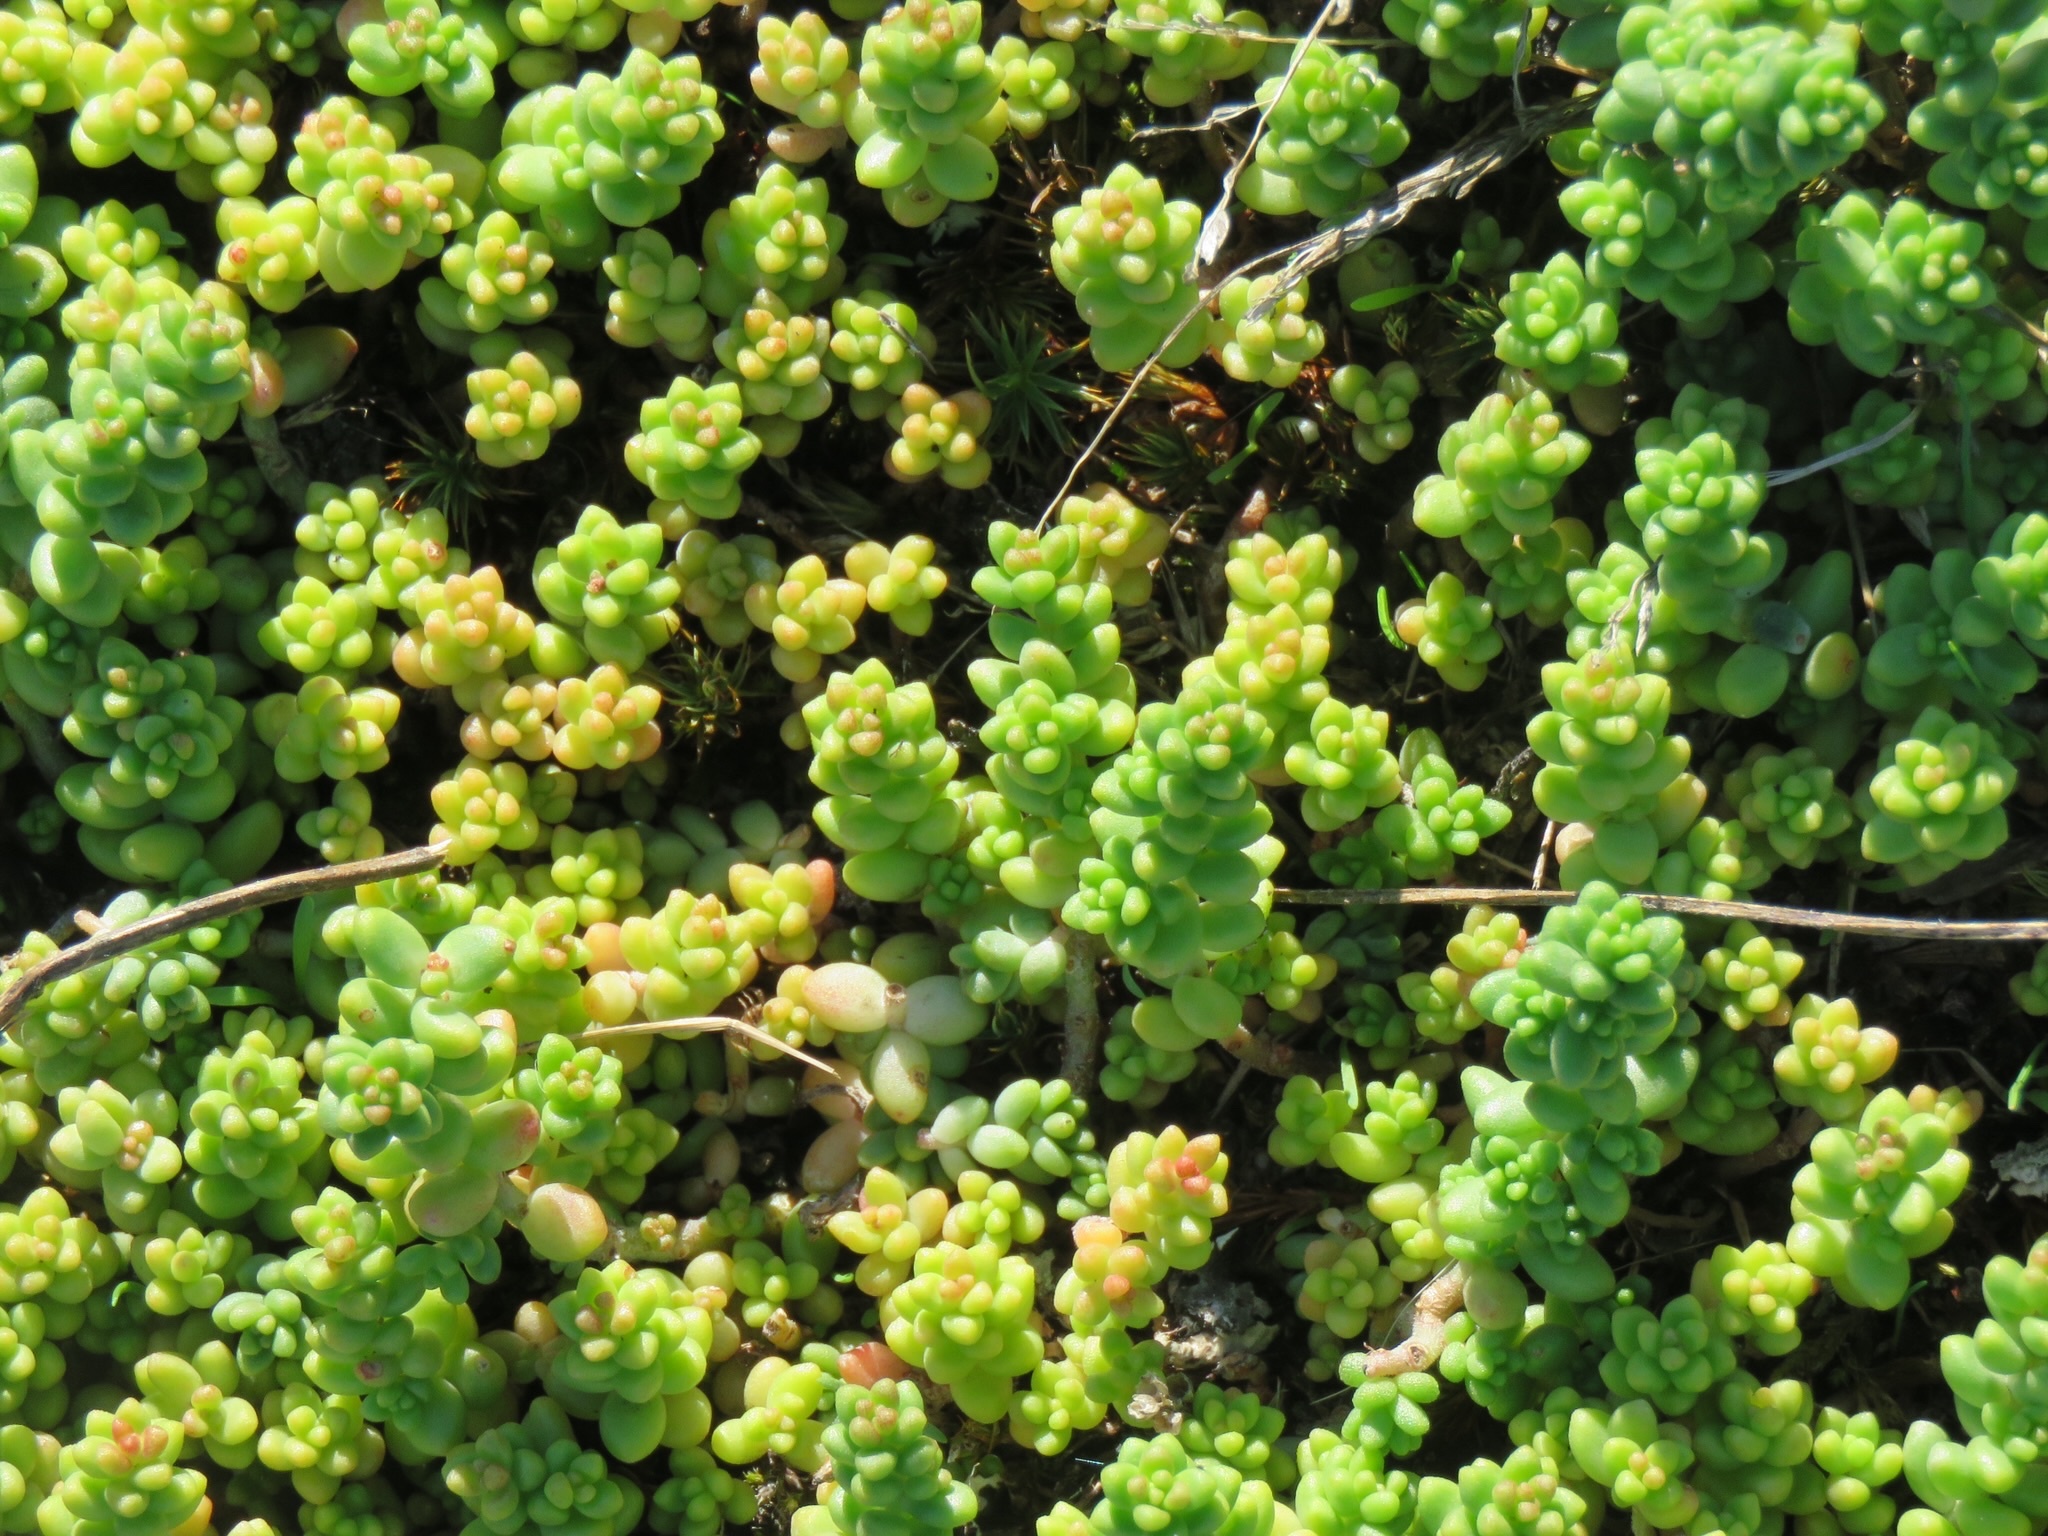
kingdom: Plantae
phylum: Tracheophyta
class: Magnoliopsida
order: Saxifragales
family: Crassulaceae
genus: Sedum
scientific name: Sedum album
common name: White stonecrop
